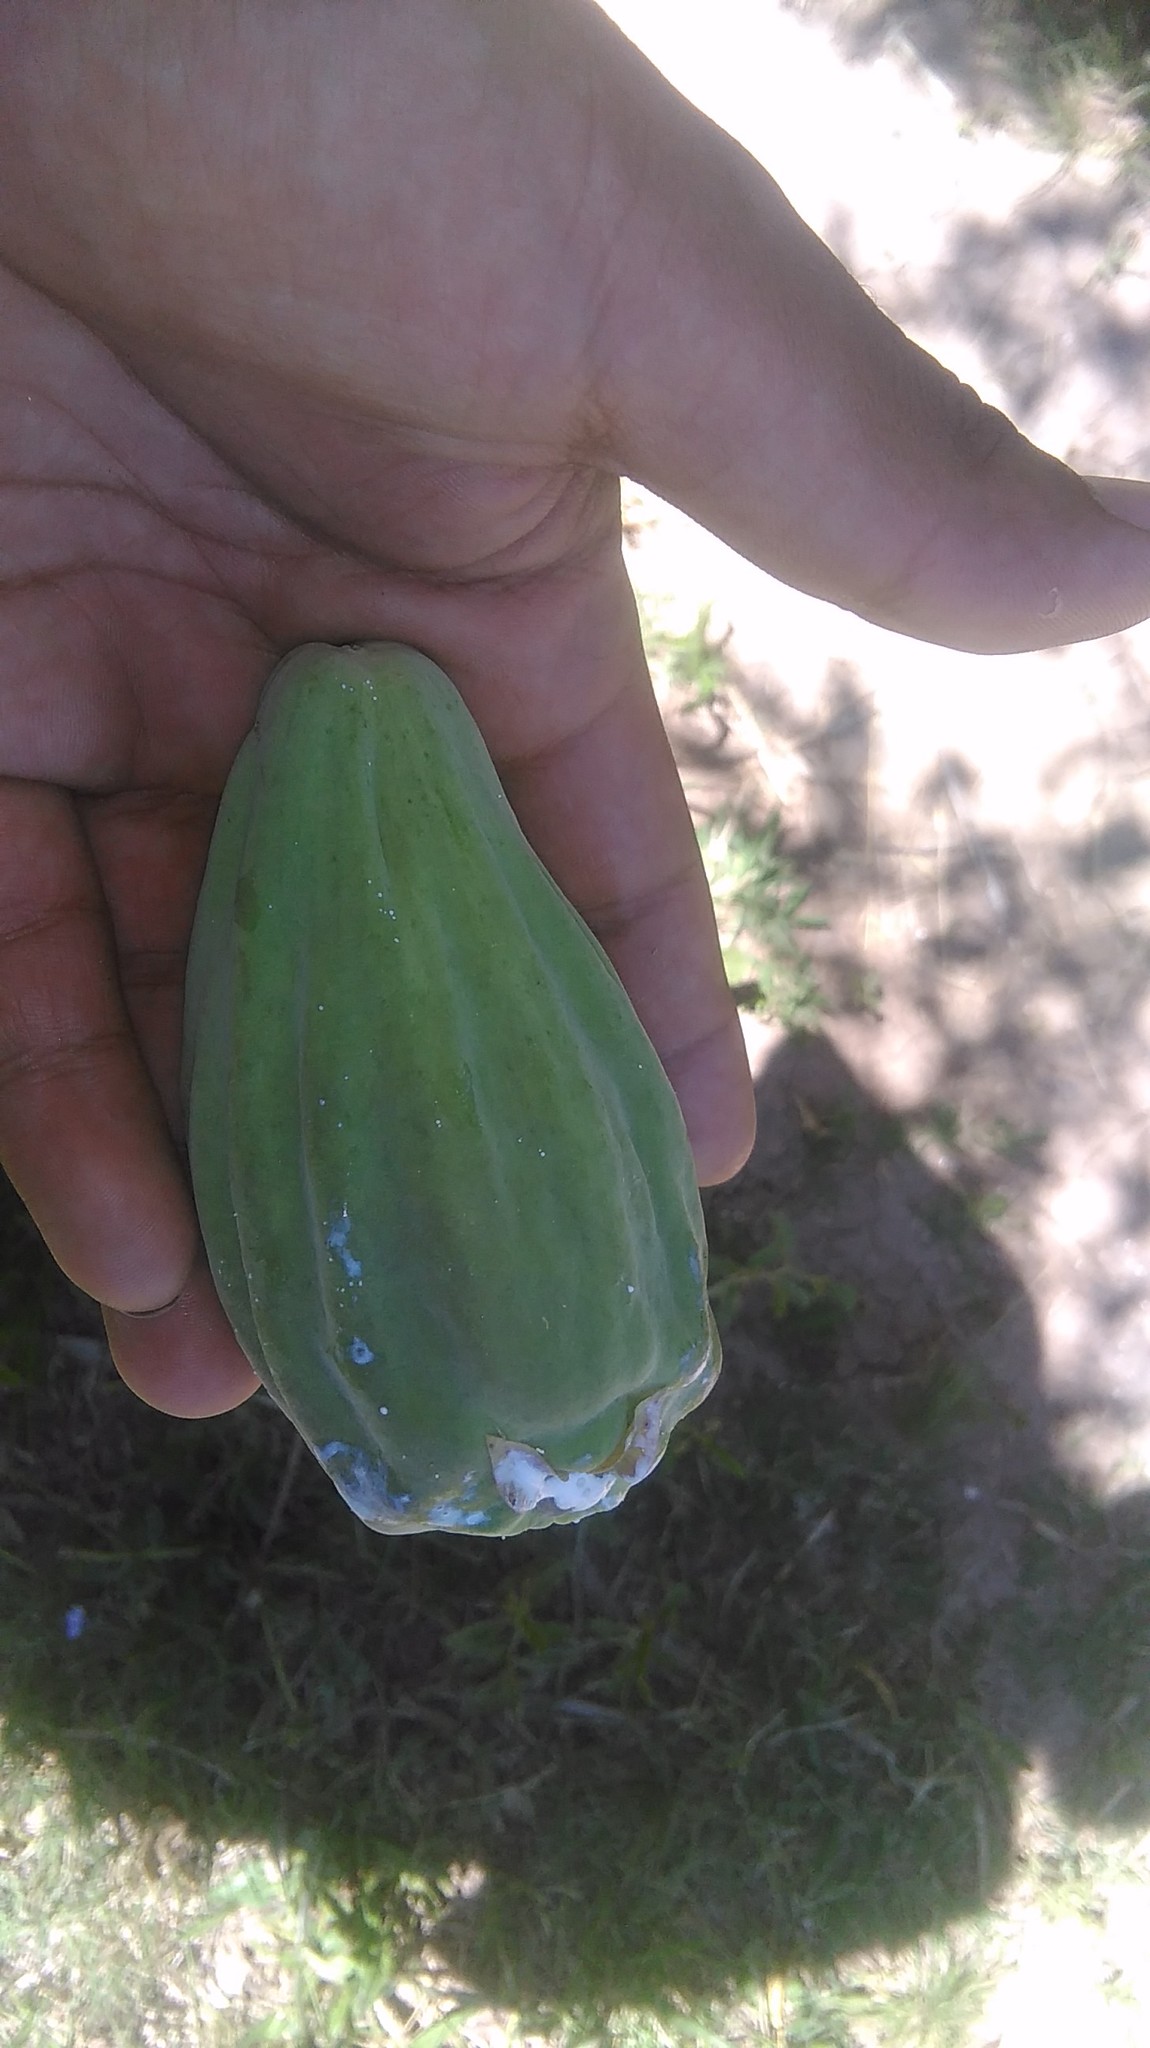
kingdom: Plantae
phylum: Tracheophyta
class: Magnoliopsida
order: Gentianales
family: Apocynaceae
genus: Araujia
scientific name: Araujia sericifera
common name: White bladderflower
